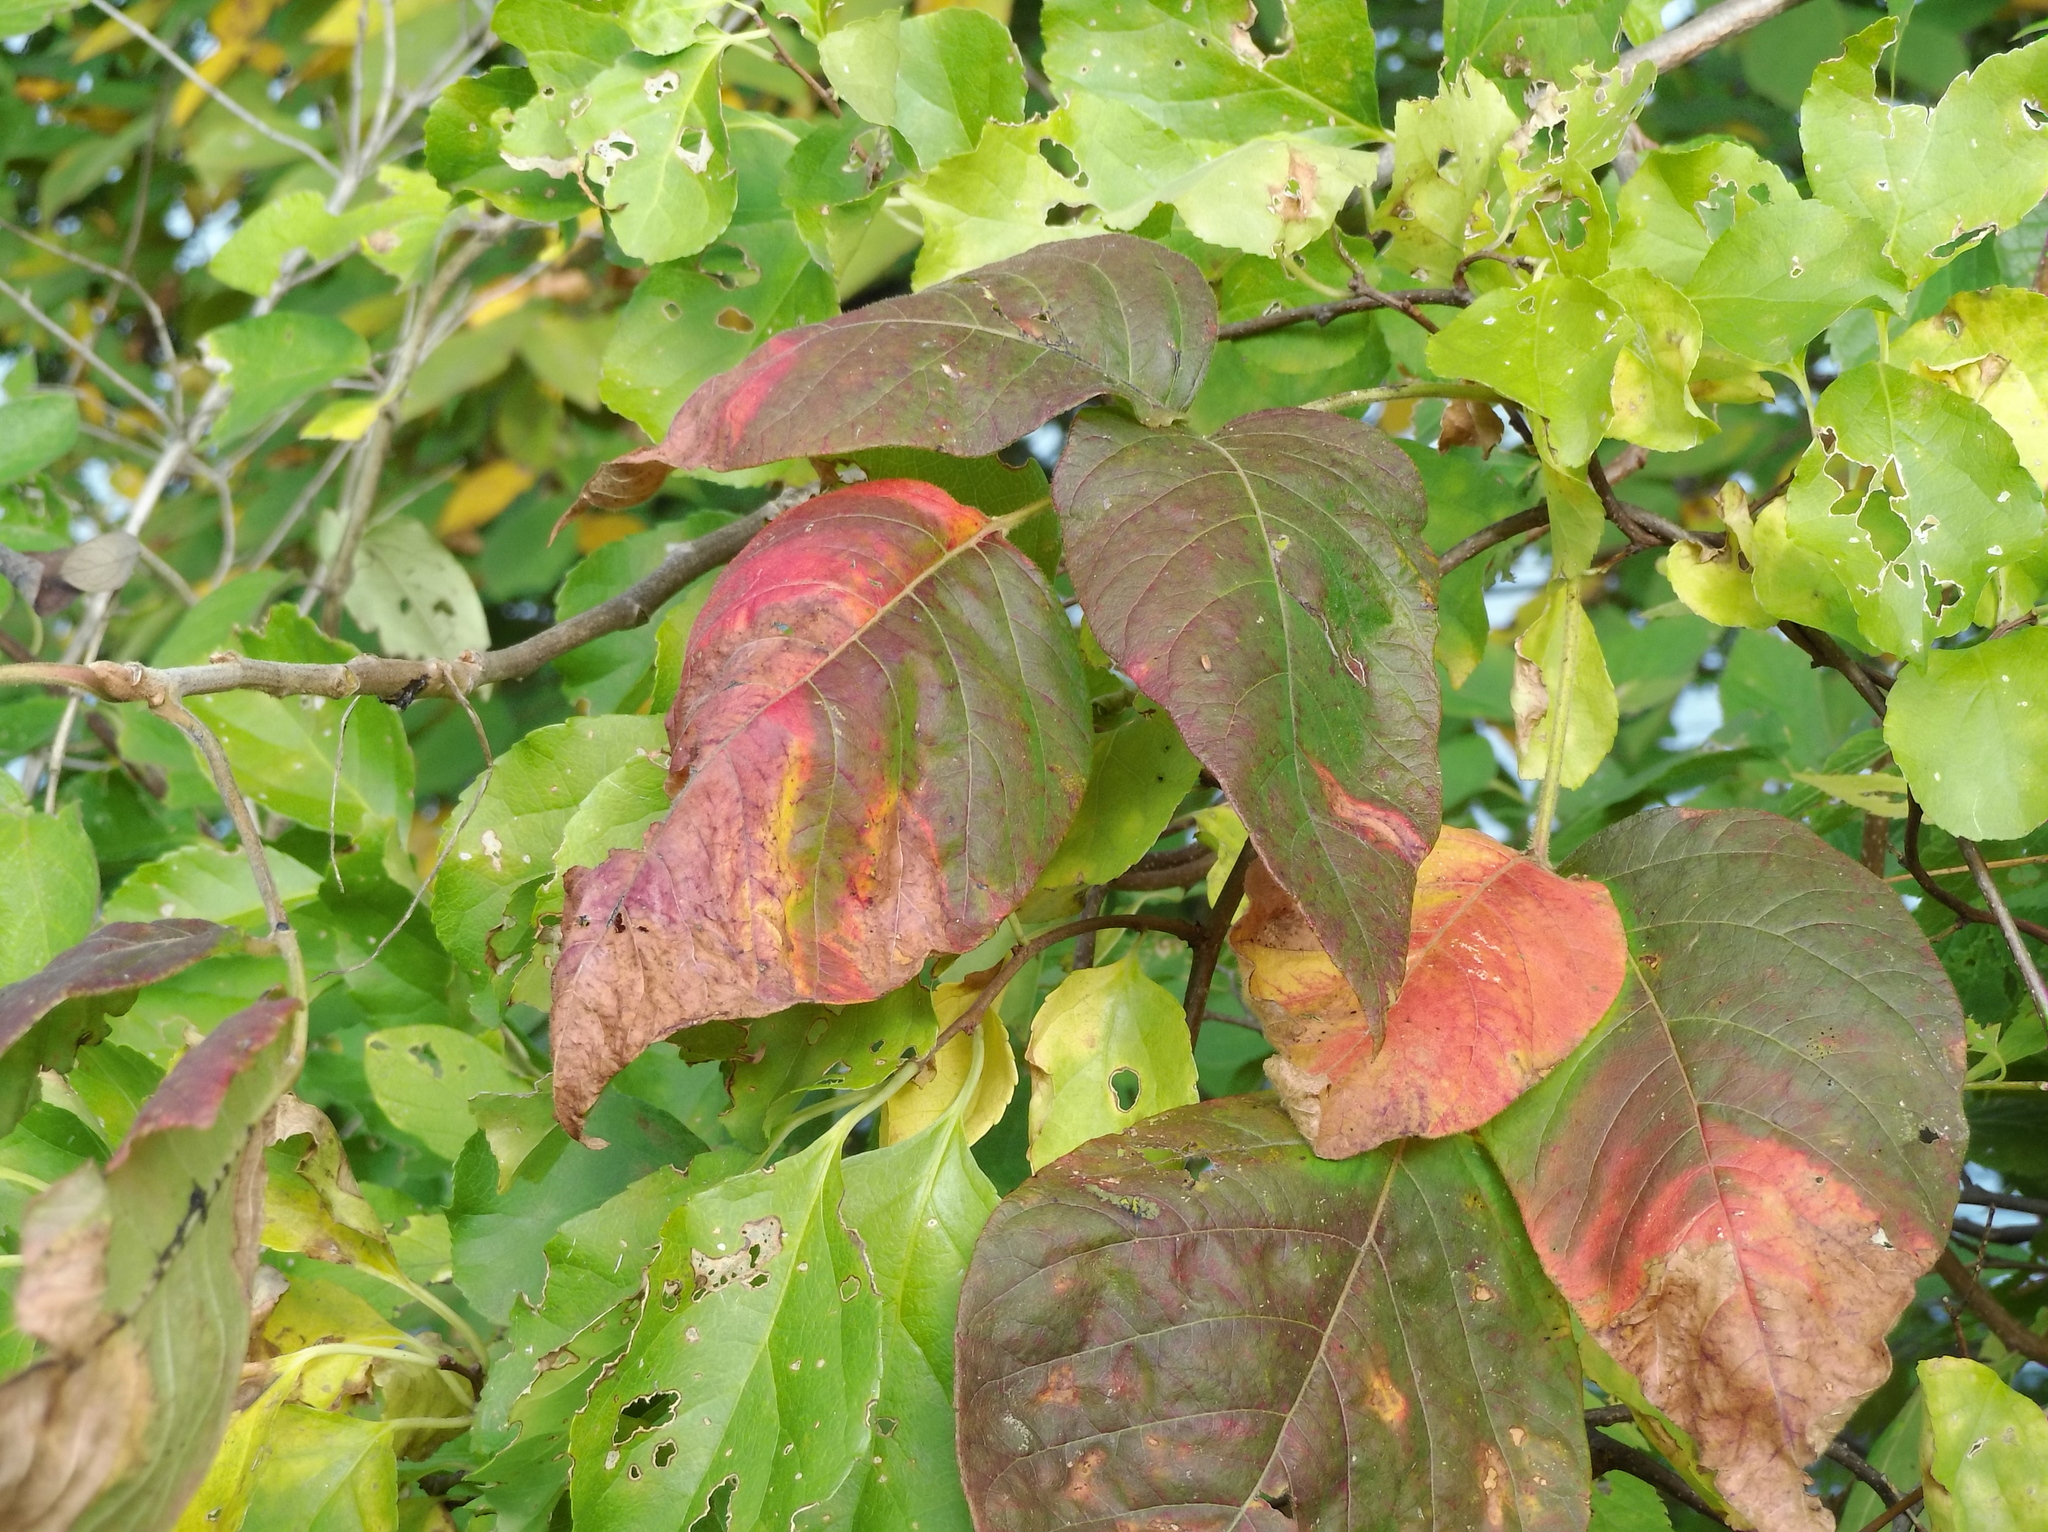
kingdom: Plantae
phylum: Tracheophyta
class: Magnoliopsida
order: Sapindales
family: Anacardiaceae
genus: Toxicodendron
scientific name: Toxicodendron radicans
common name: Poison ivy
